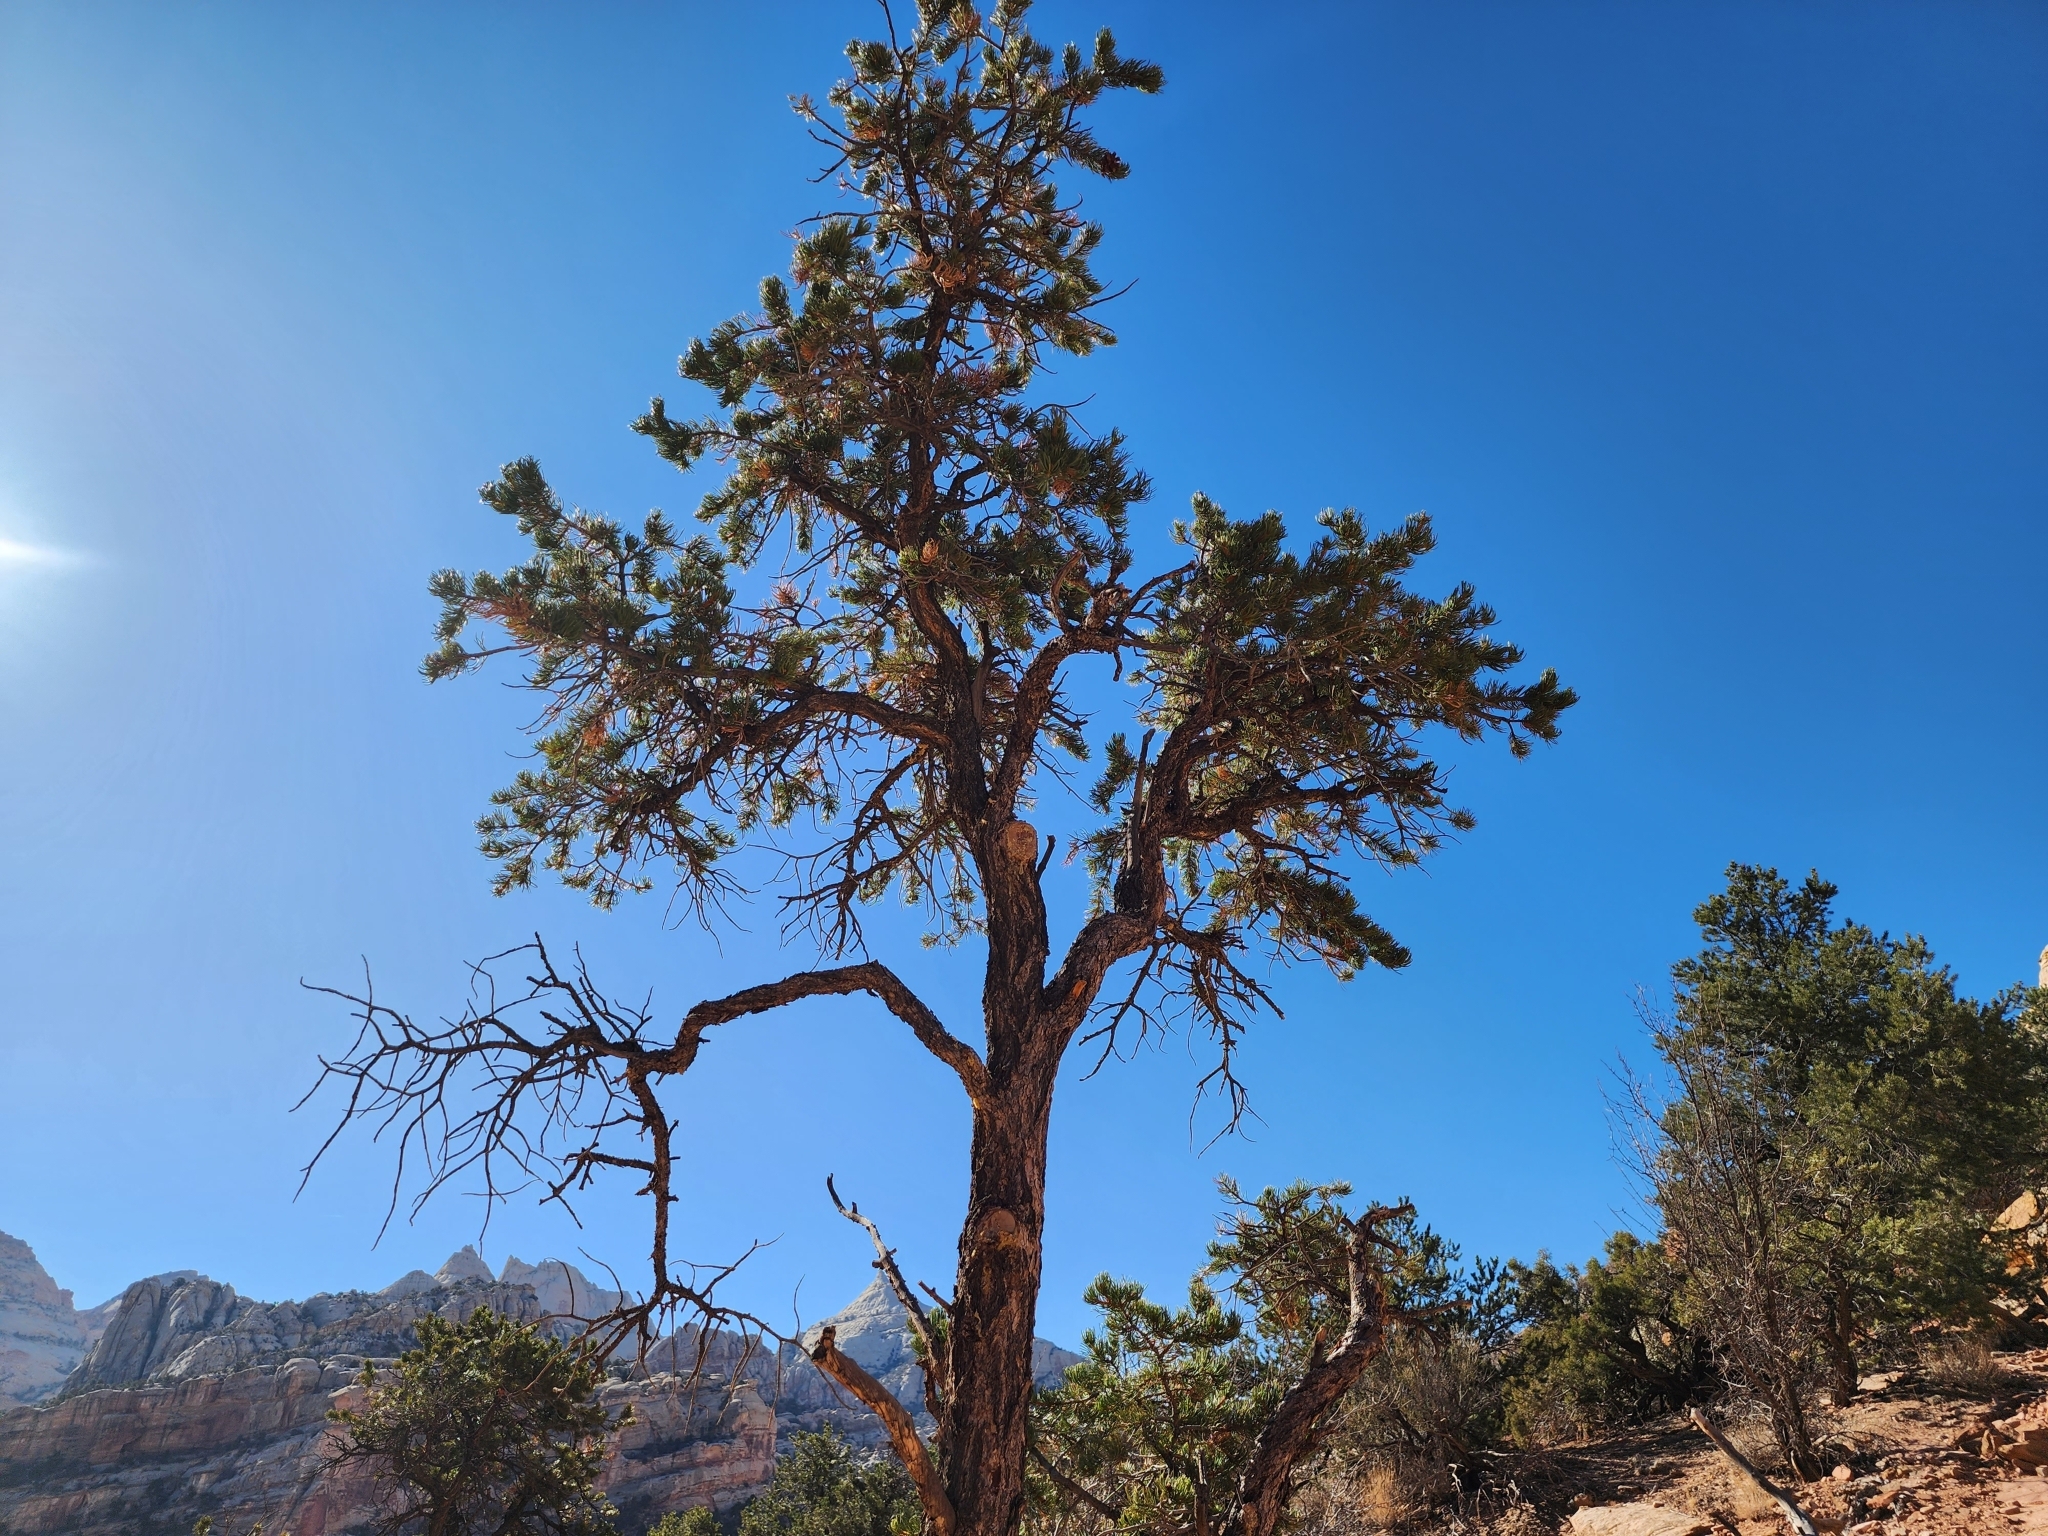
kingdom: Plantae
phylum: Tracheophyta
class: Pinopsida
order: Pinales
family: Pinaceae
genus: Pinus
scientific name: Pinus edulis
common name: Colorado pinyon
